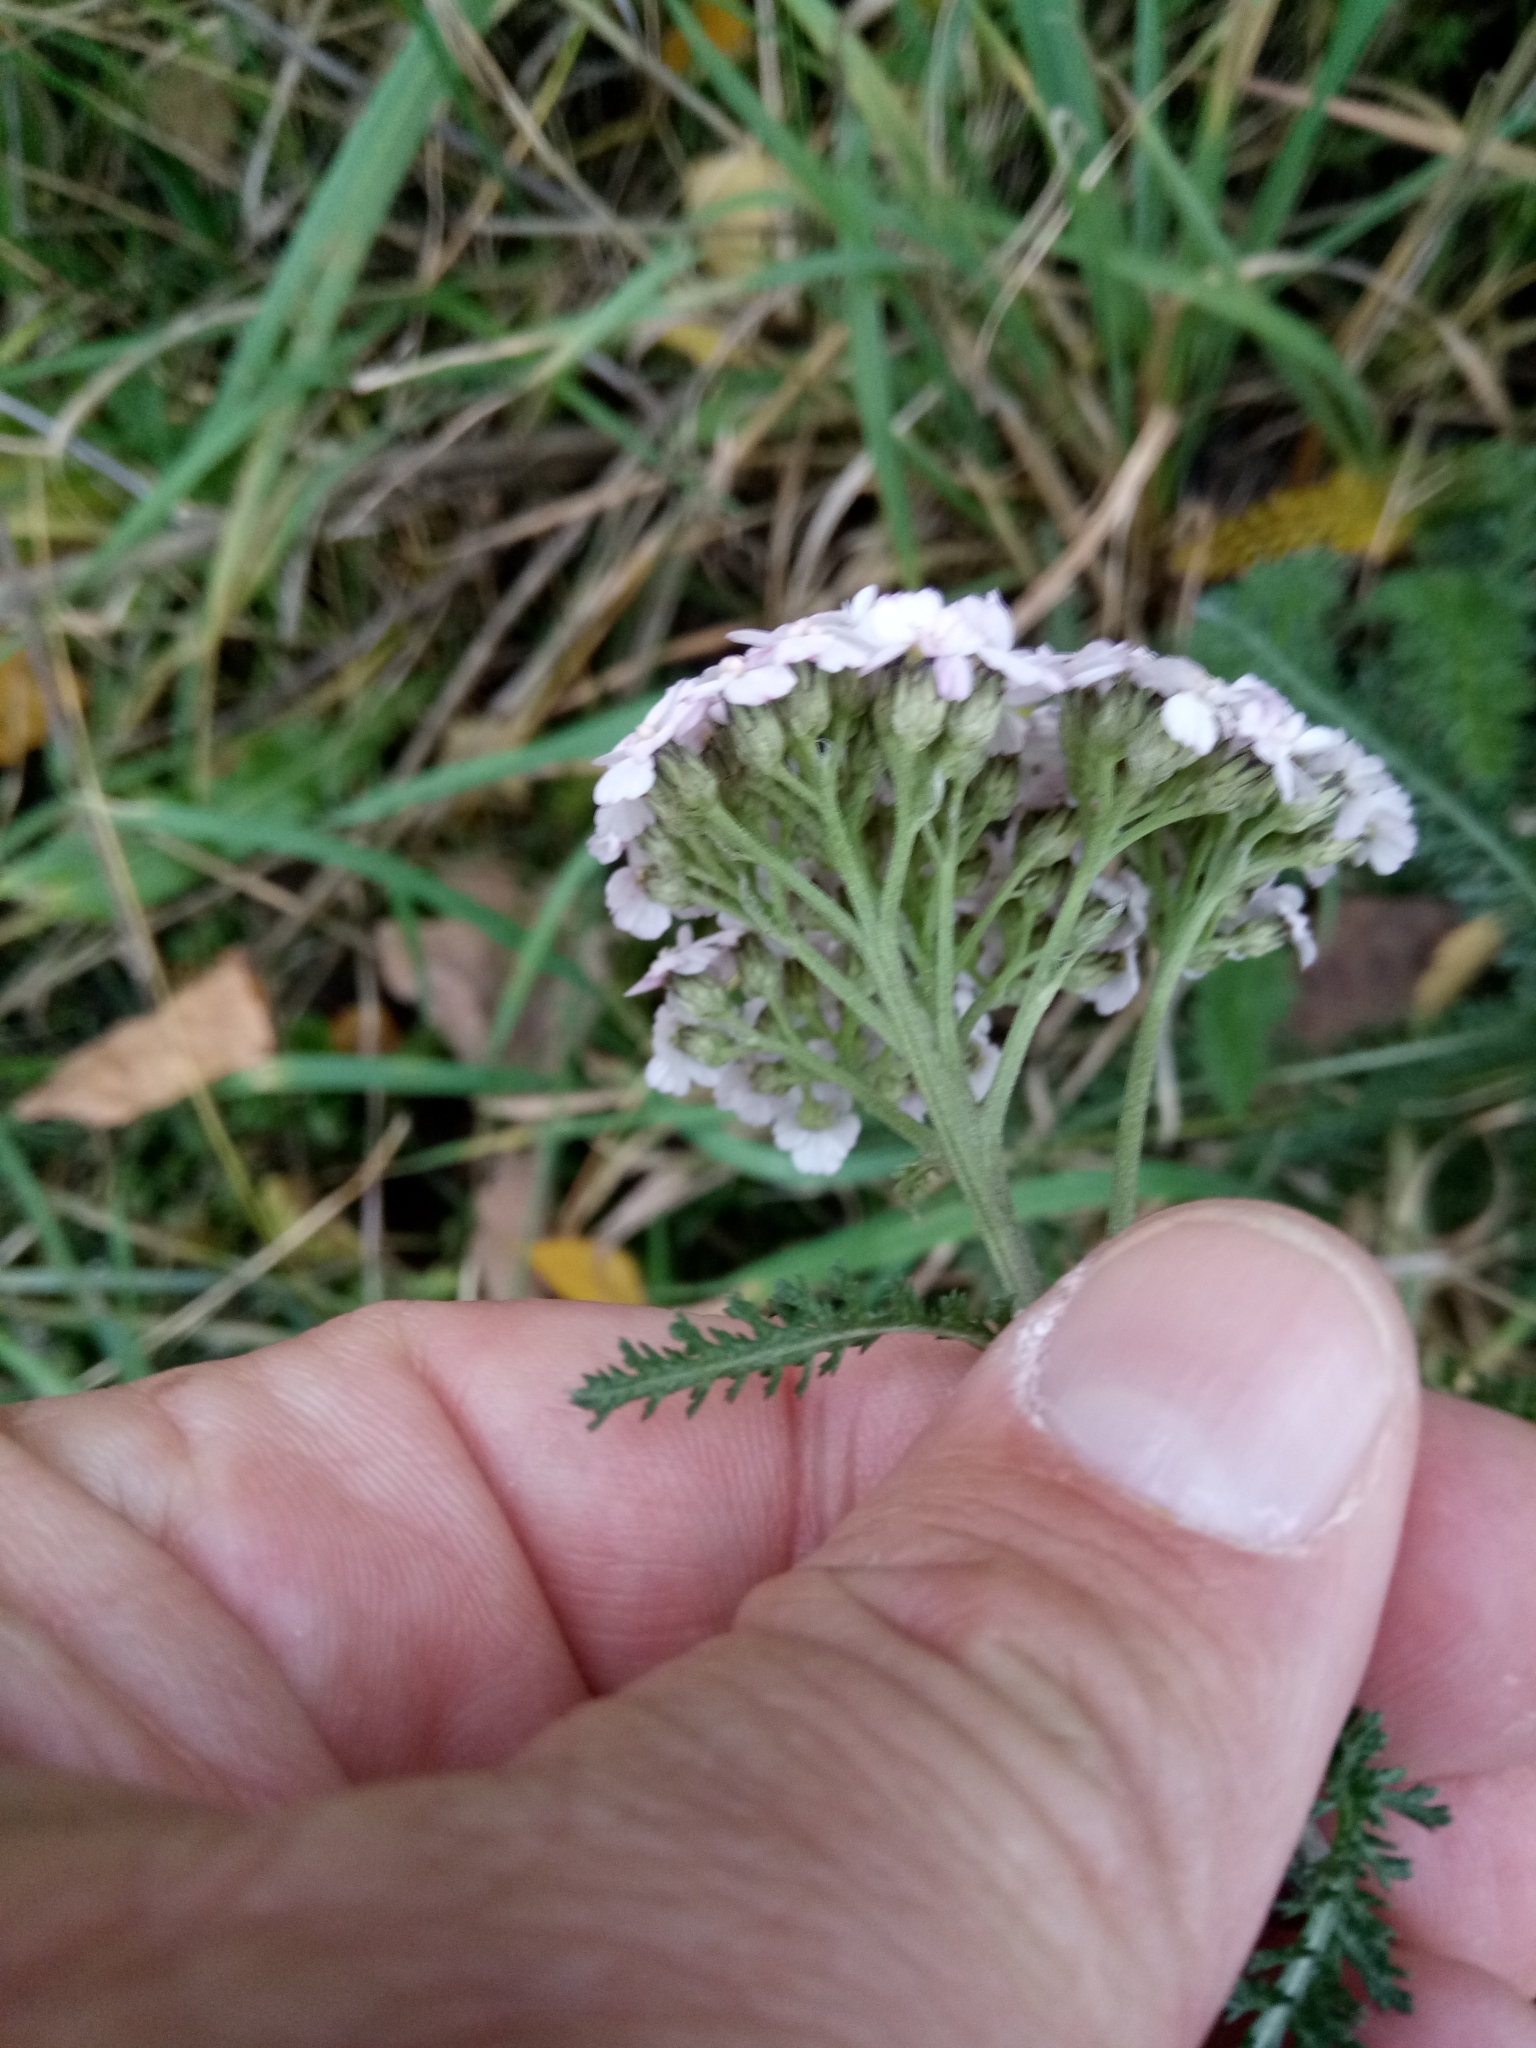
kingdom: Plantae
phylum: Tracheophyta
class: Magnoliopsida
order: Asterales
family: Asteraceae
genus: Achillea
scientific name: Achillea millefolium
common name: Yarrow
